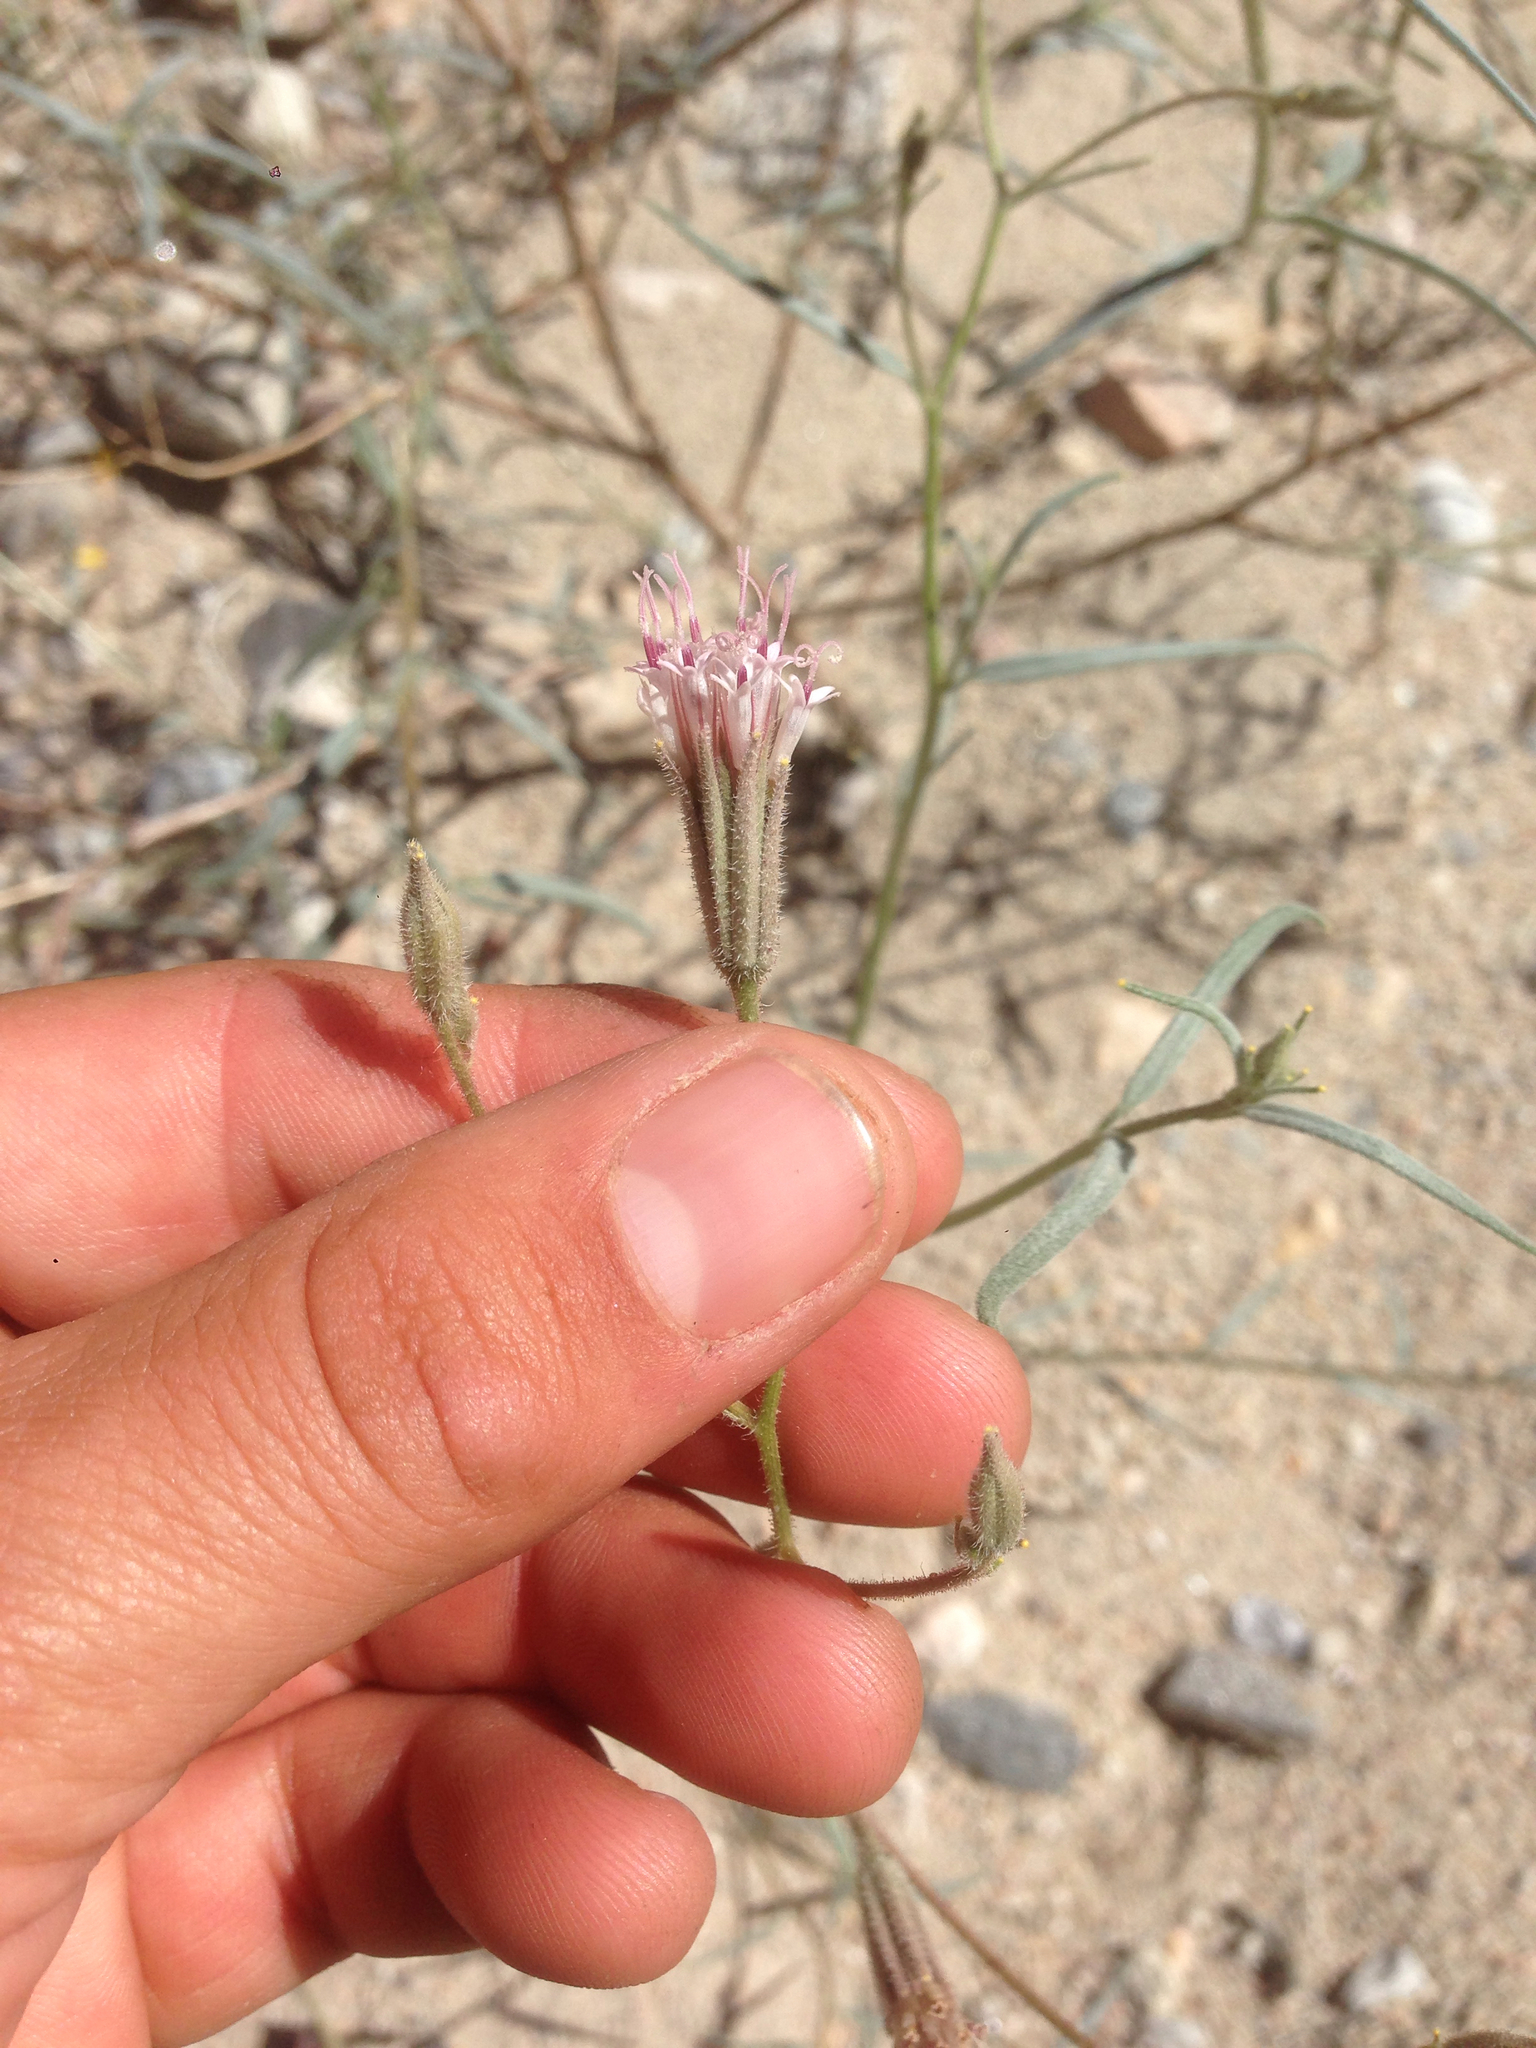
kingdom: Plantae
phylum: Tracheophyta
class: Magnoliopsida
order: Asterales
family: Asteraceae
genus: Palafoxia
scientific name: Palafoxia arida
